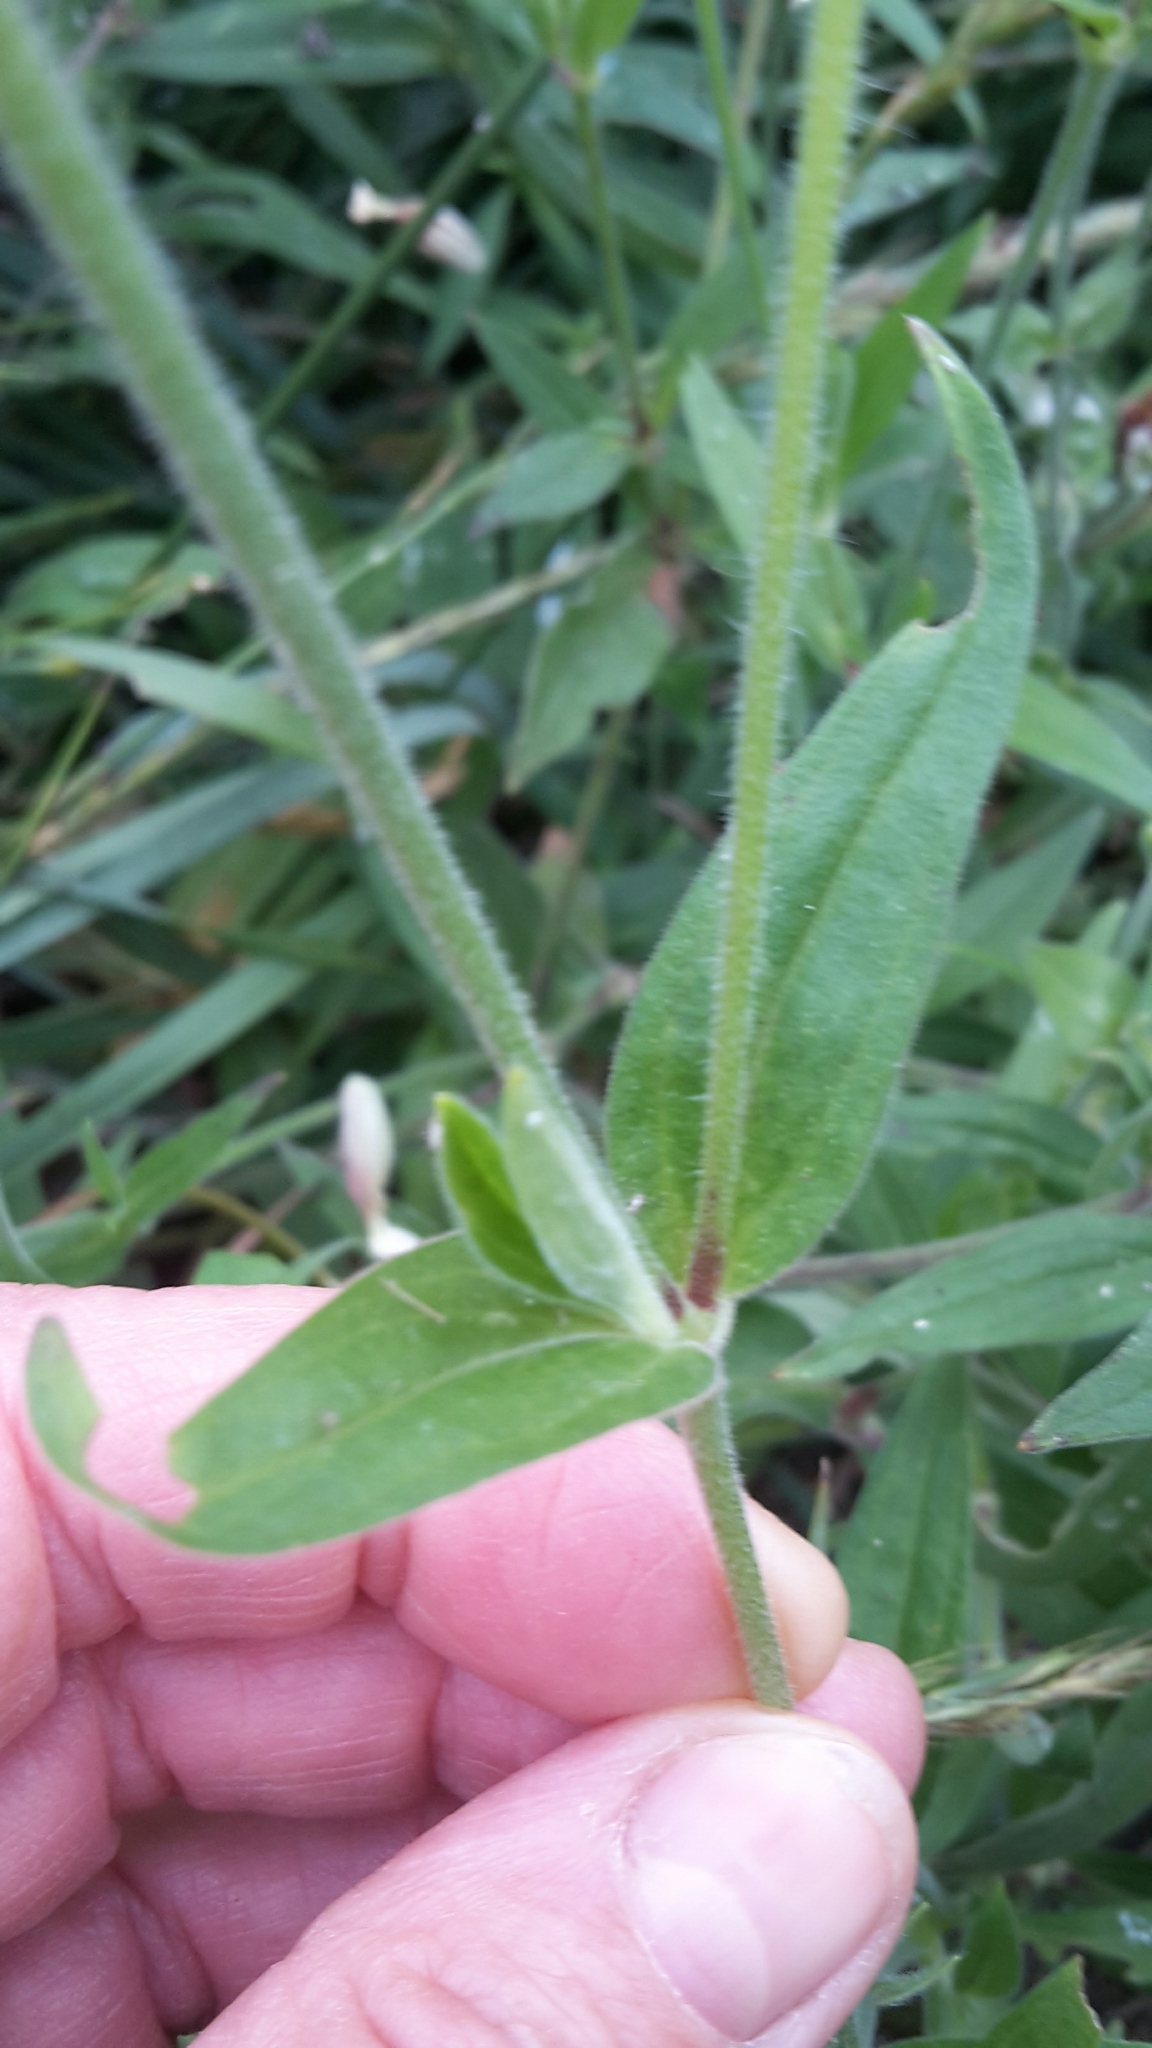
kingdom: Plantae
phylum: Tracheophyta
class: Magnoliopsida
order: Caryophyllales
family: Caryophyllaceae
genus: Silene
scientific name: Silene latifolia
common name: White campion
